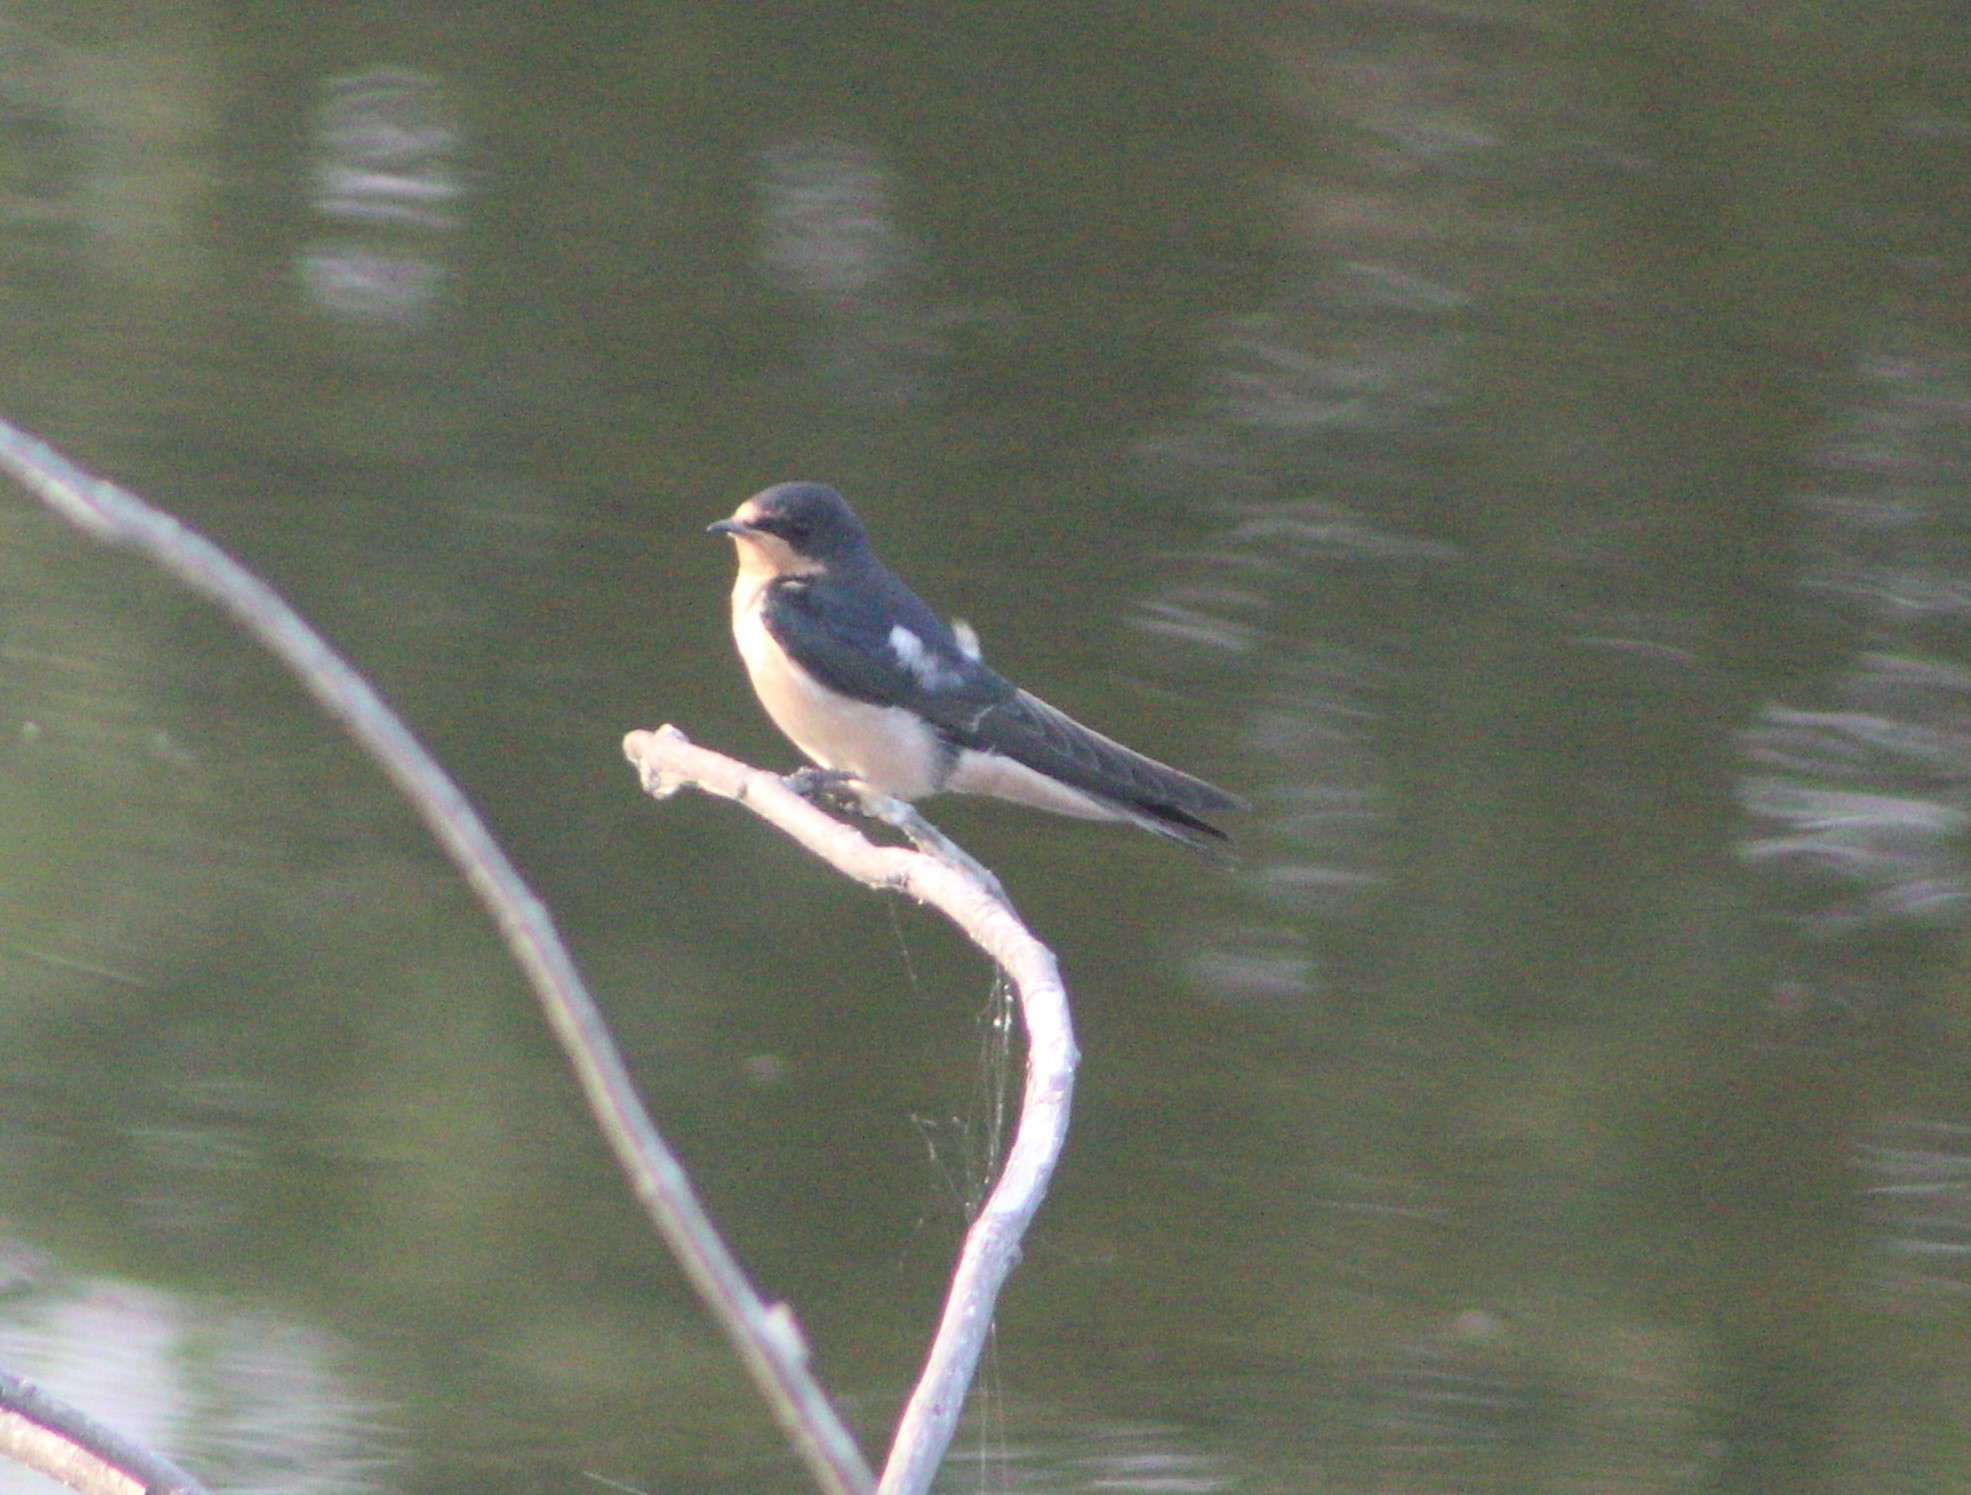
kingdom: Animalia
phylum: Chordata
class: Aves
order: Passeriformes
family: Hirundinidae
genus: Hirundo
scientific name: Hirundo rustica
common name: Barn swallow
